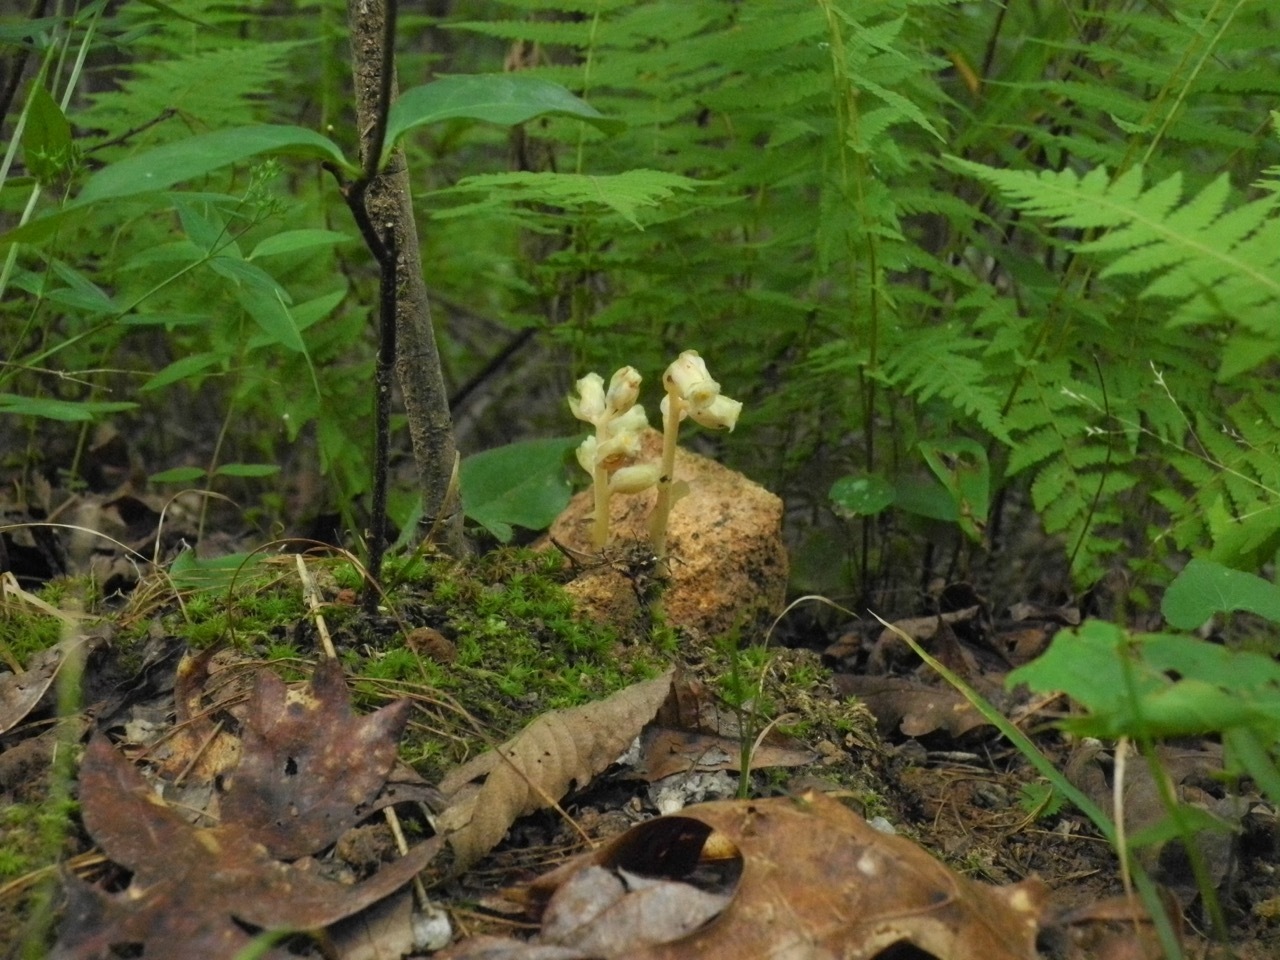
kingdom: Plantae
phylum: Tracheophyta
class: Magnoliopsida
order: Ericales
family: Ericaceae
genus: Hypopitys
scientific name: Hypopitys monotropa
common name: Yellow bird's-nest
